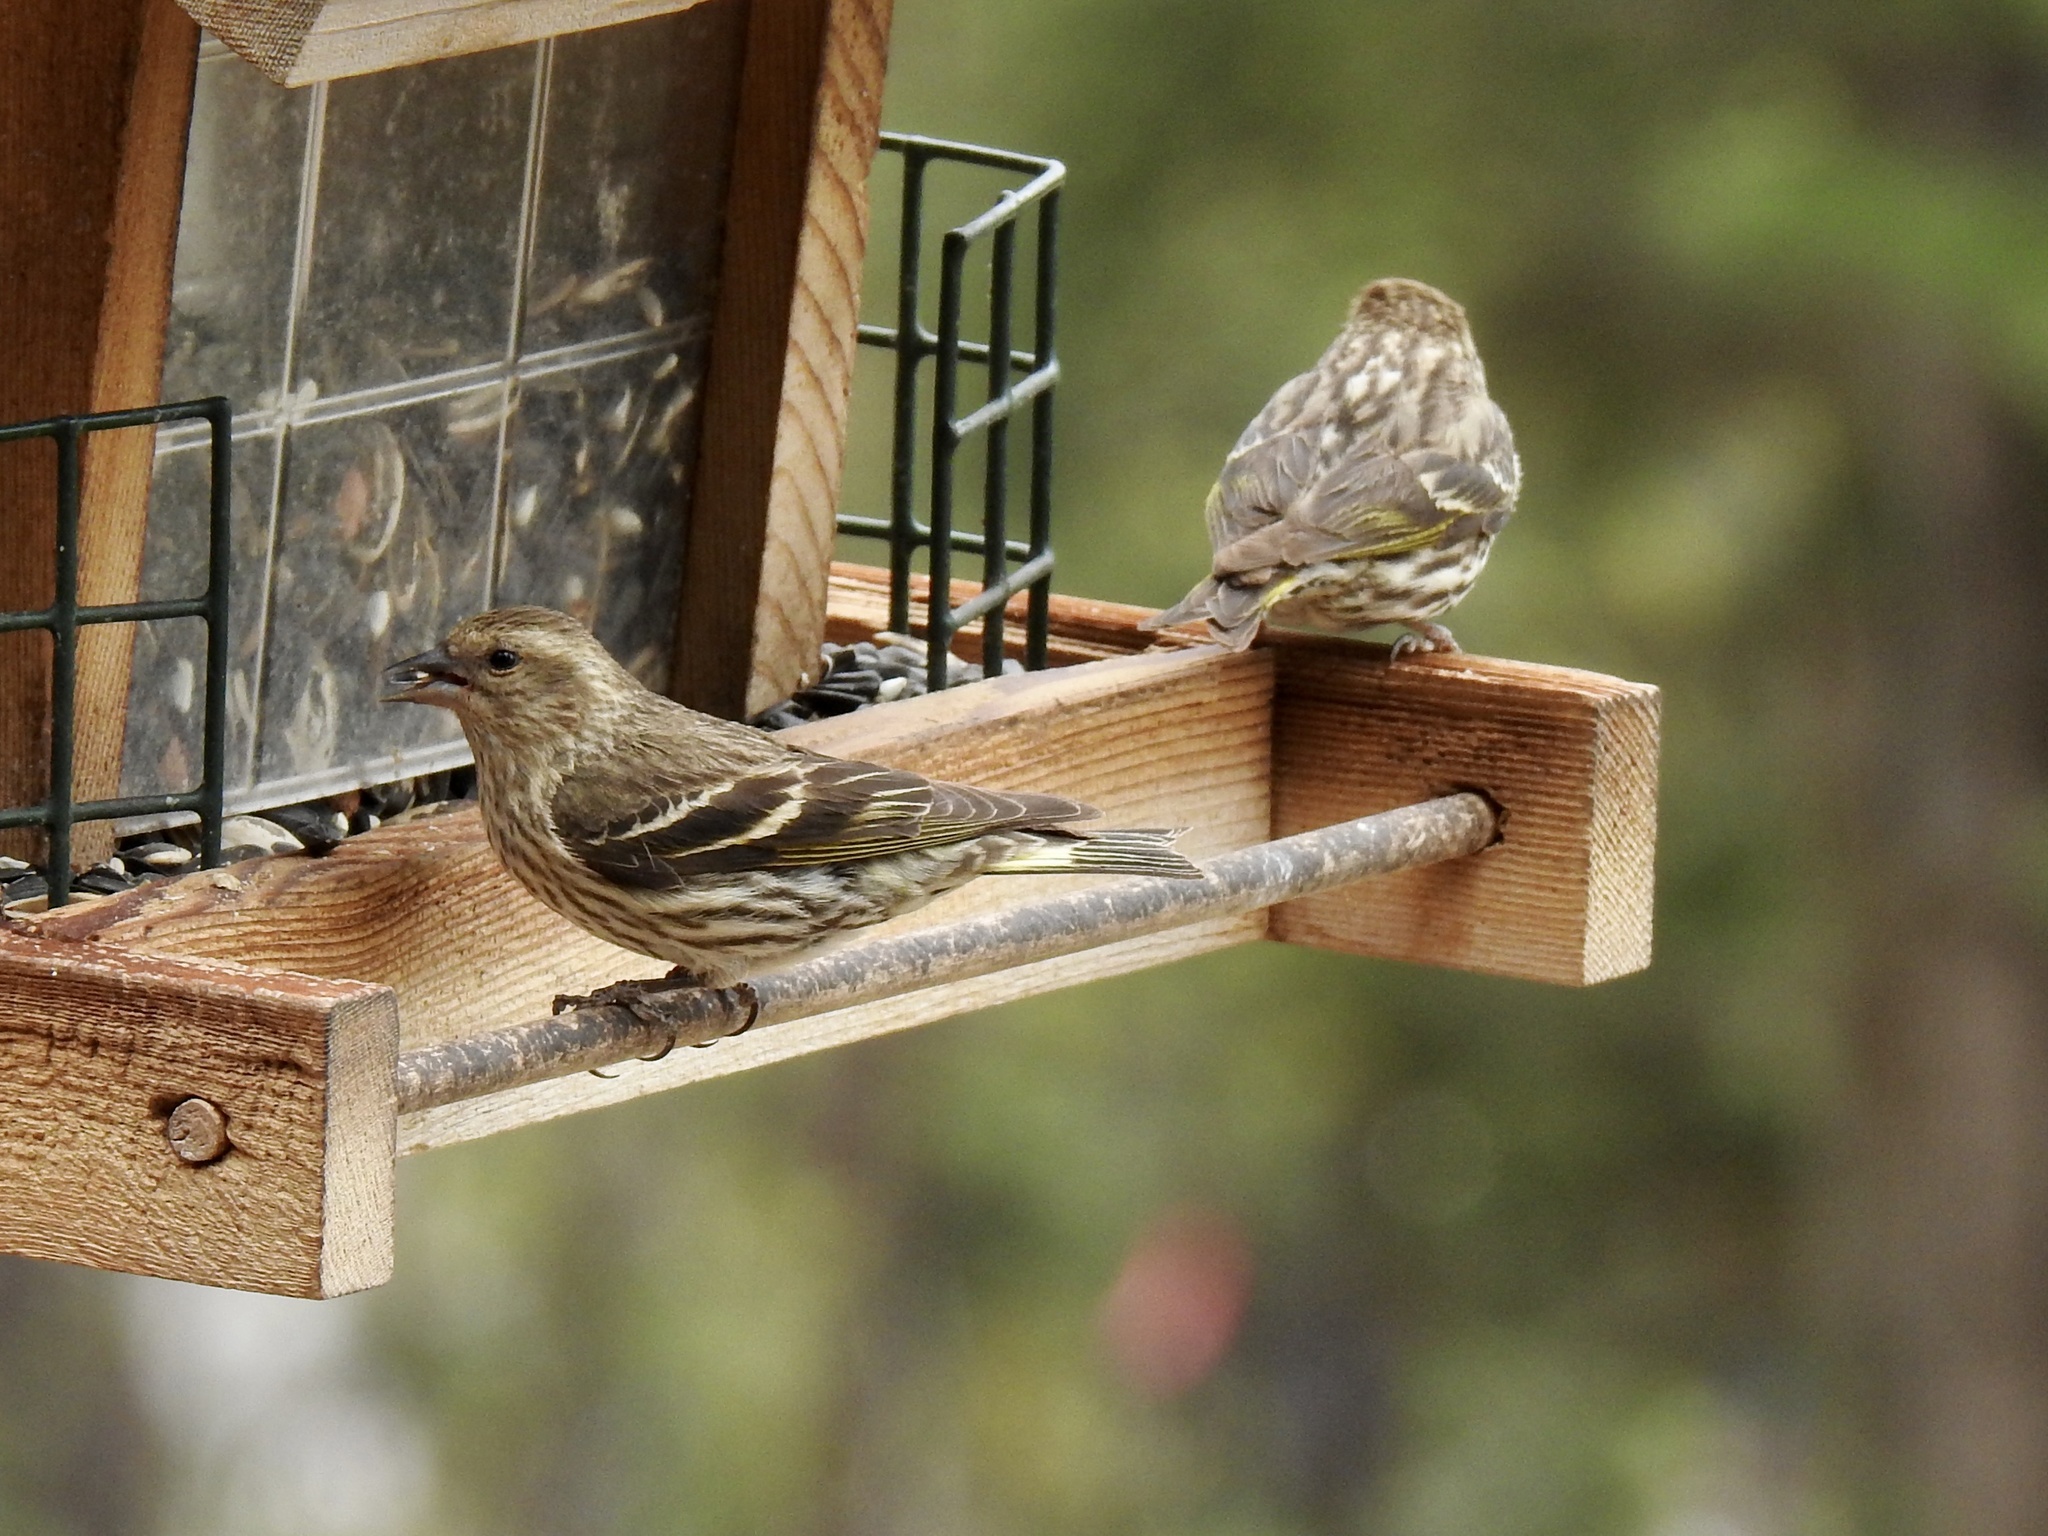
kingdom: Animalia
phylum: Chordata
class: Aves
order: Passeriformes
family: Fringillidae
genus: Spinus
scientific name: Spinus pinus
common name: Pine siskin
